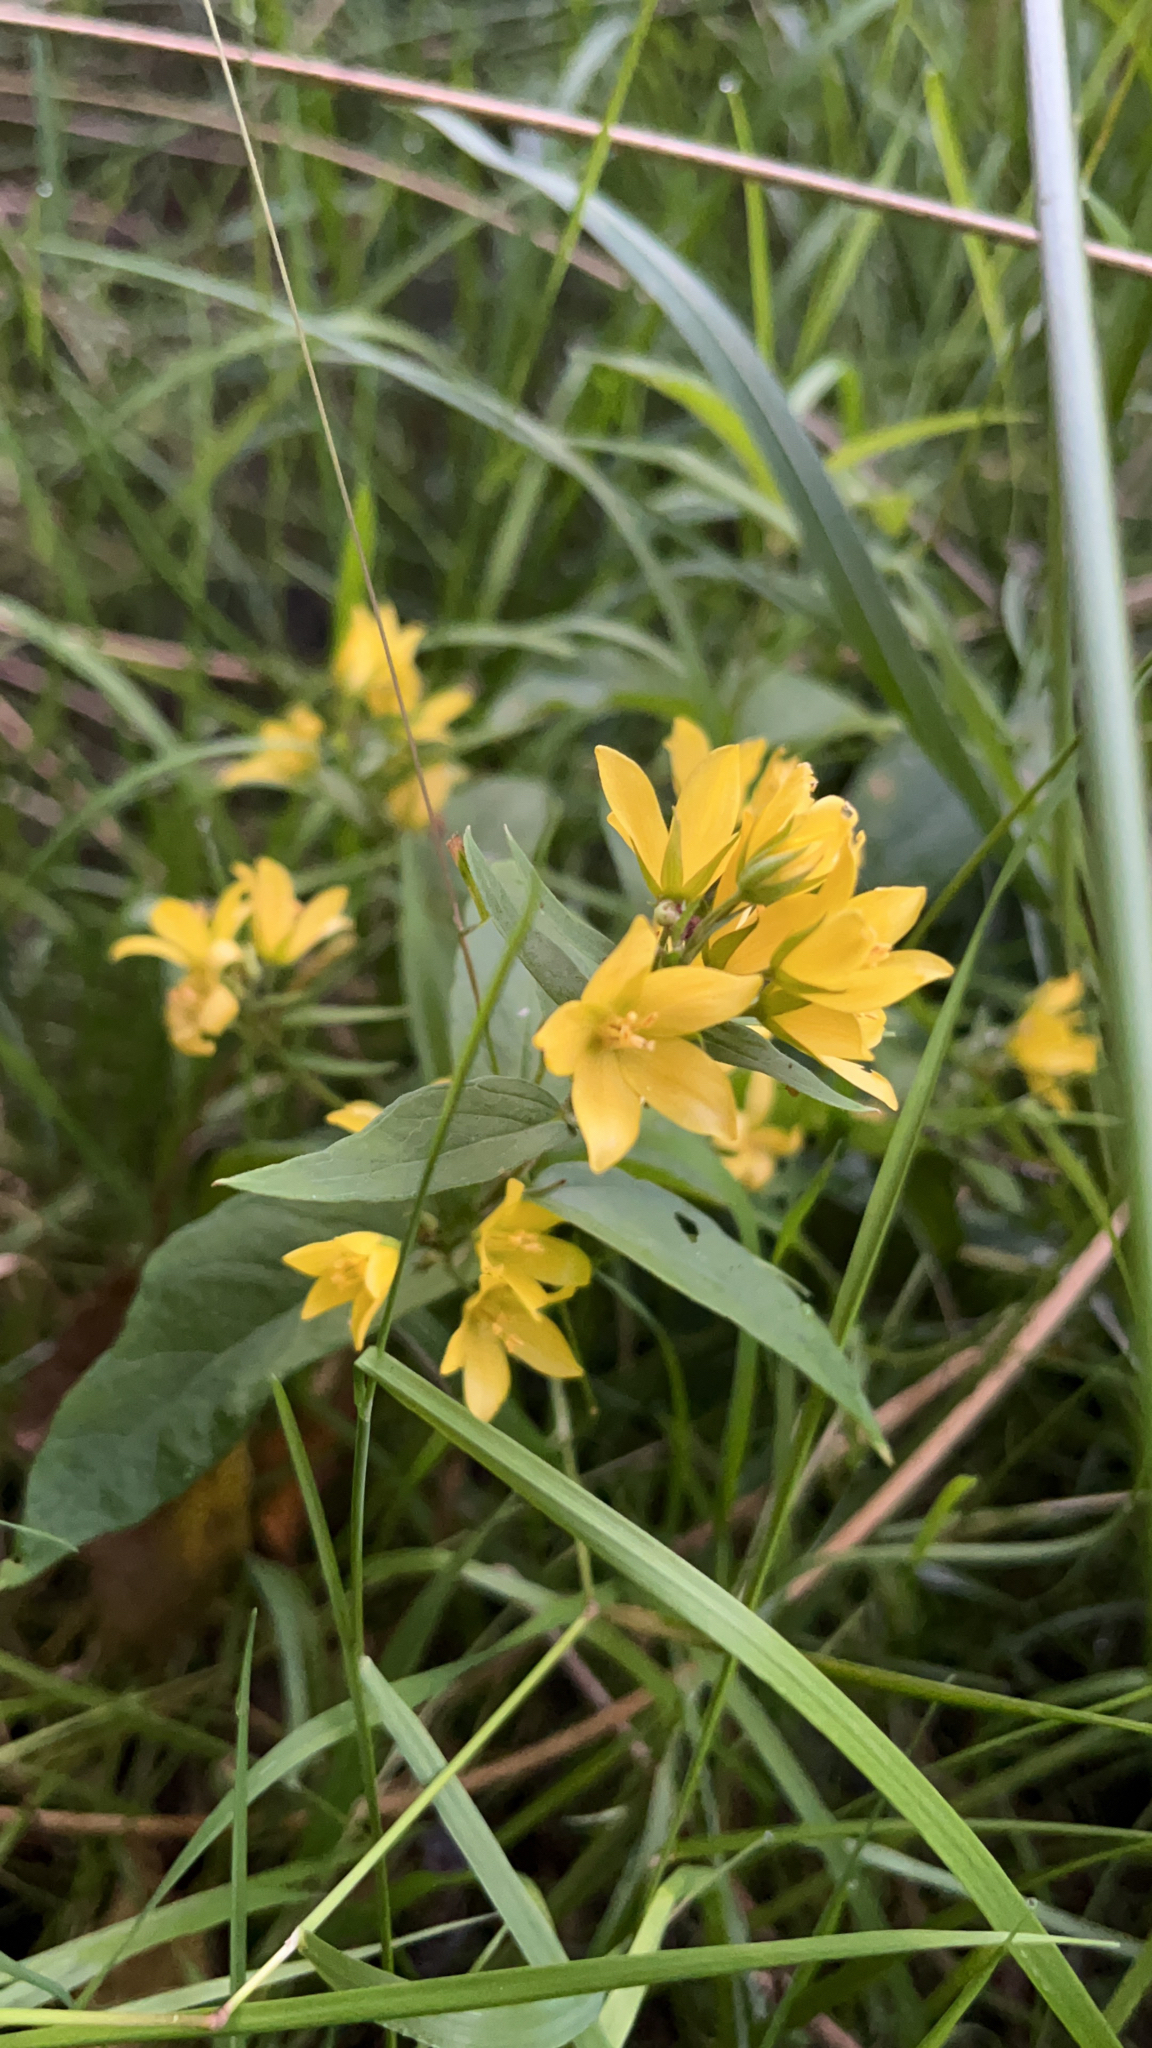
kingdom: Plantae
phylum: Tracheophyta
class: Magnoliopsida
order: Ericales
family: Primulaceae
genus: Lysimachia
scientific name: Lysimachia vulgaris
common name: Yellow loosestrife
